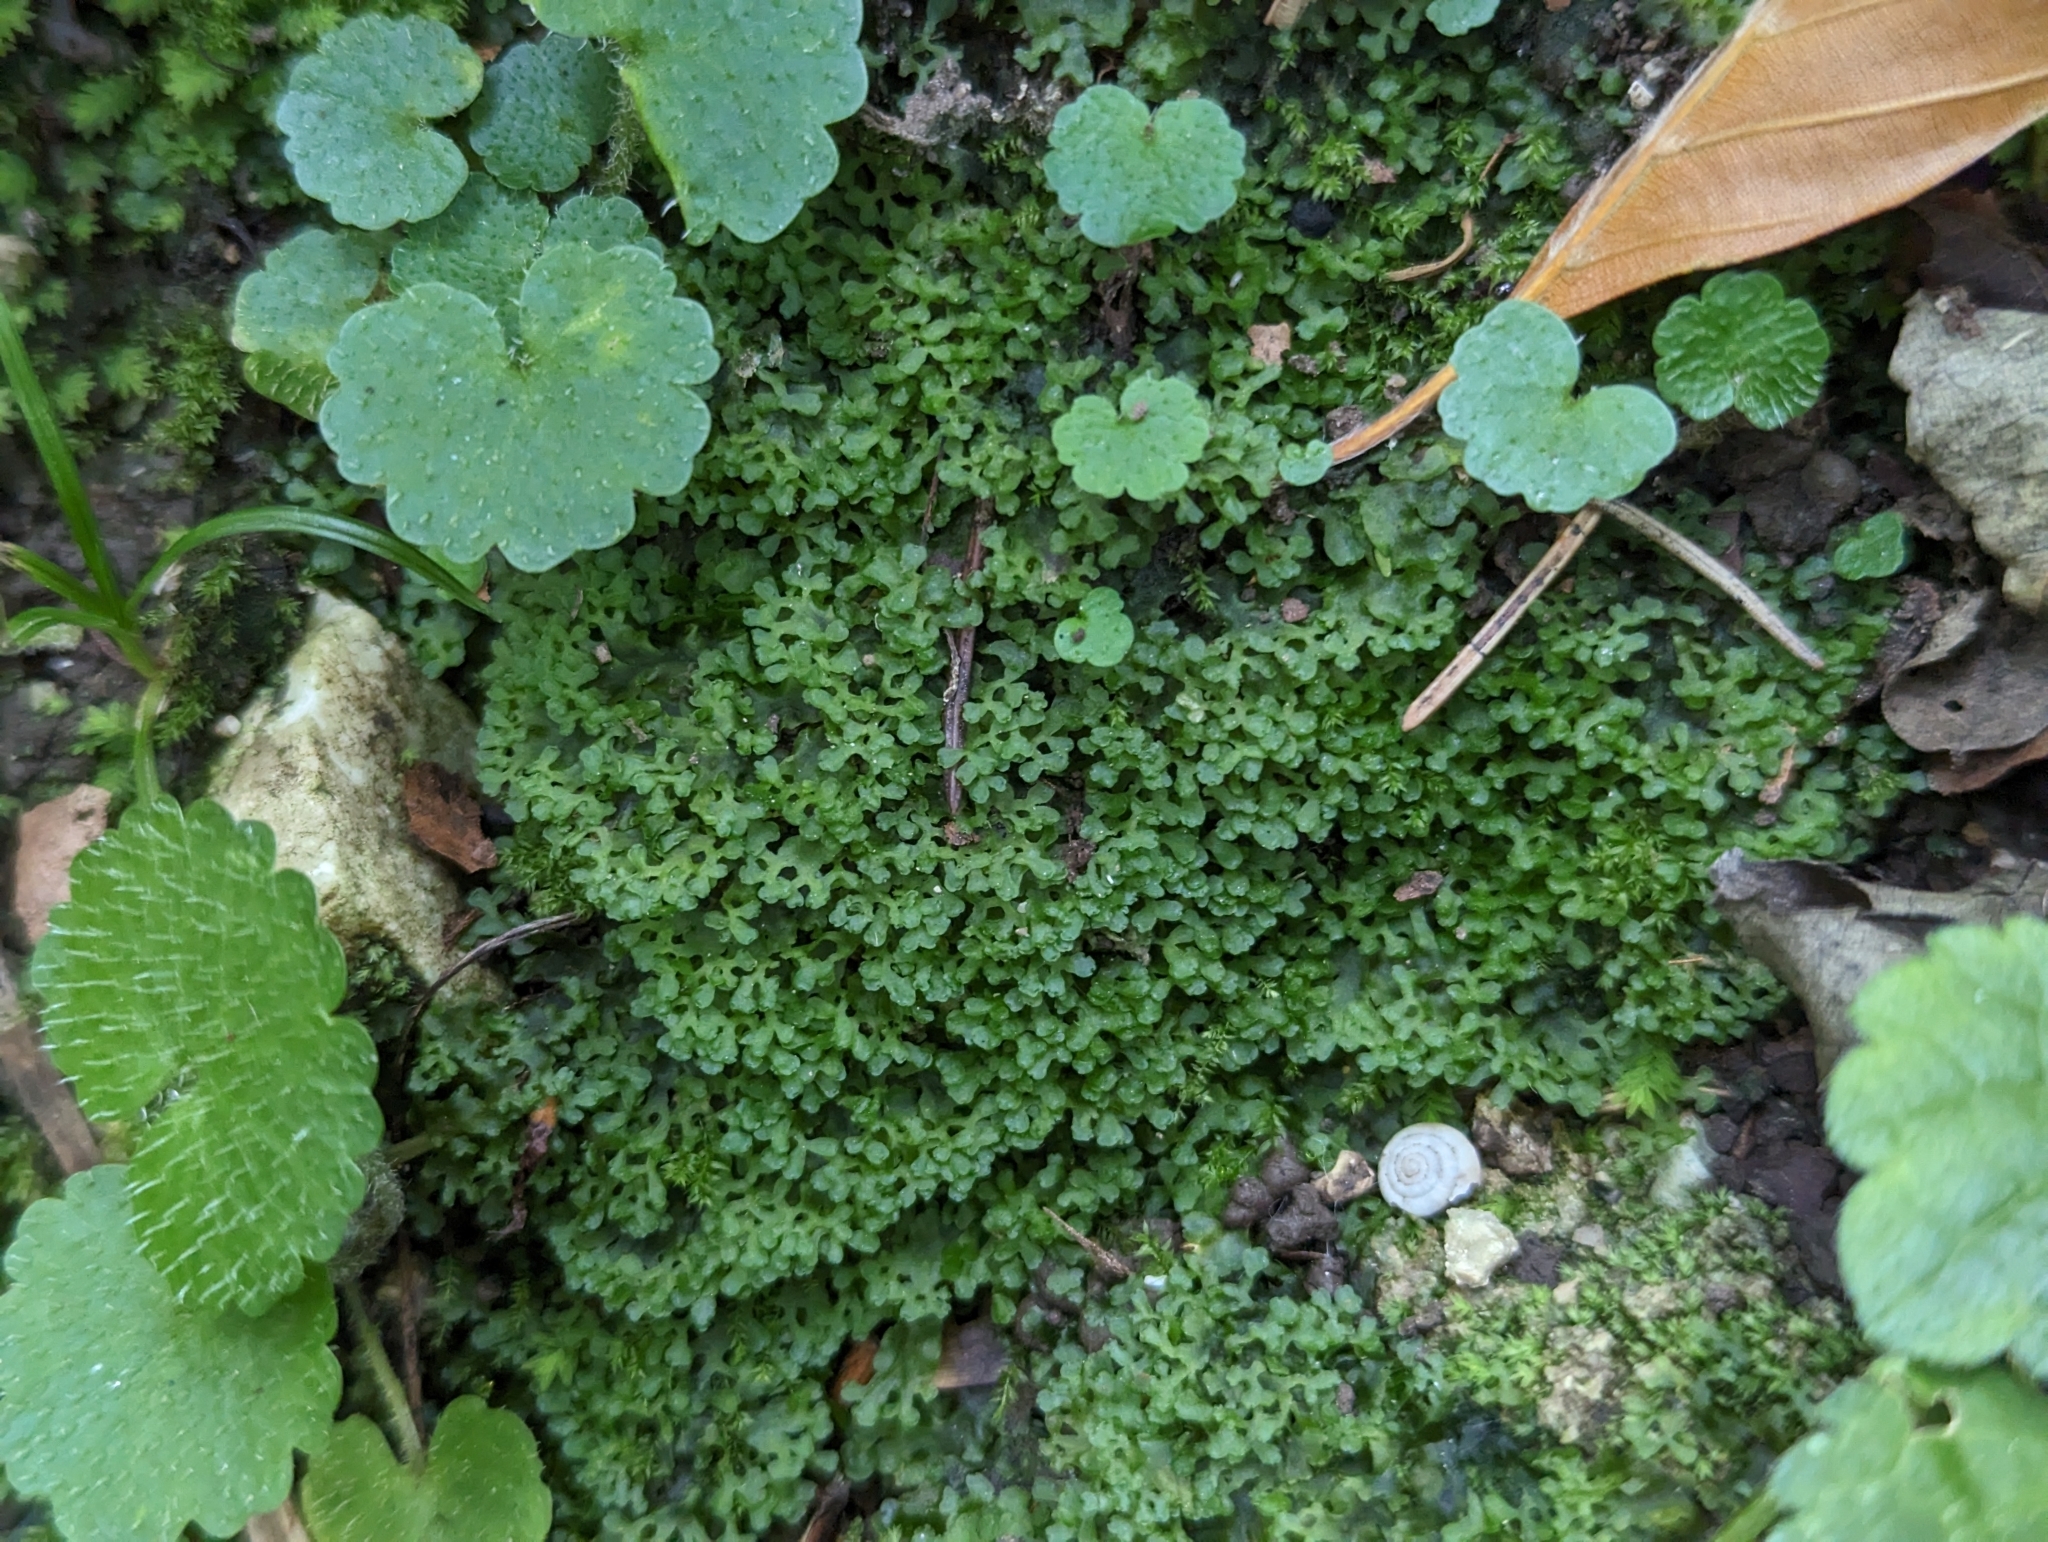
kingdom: Plantae
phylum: Marchantiophyta
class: Jungermanniopsida
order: Pelliales
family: Pelliaceae
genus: Apopellia
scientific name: Apopellia endiviifolia
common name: Endive pellia
